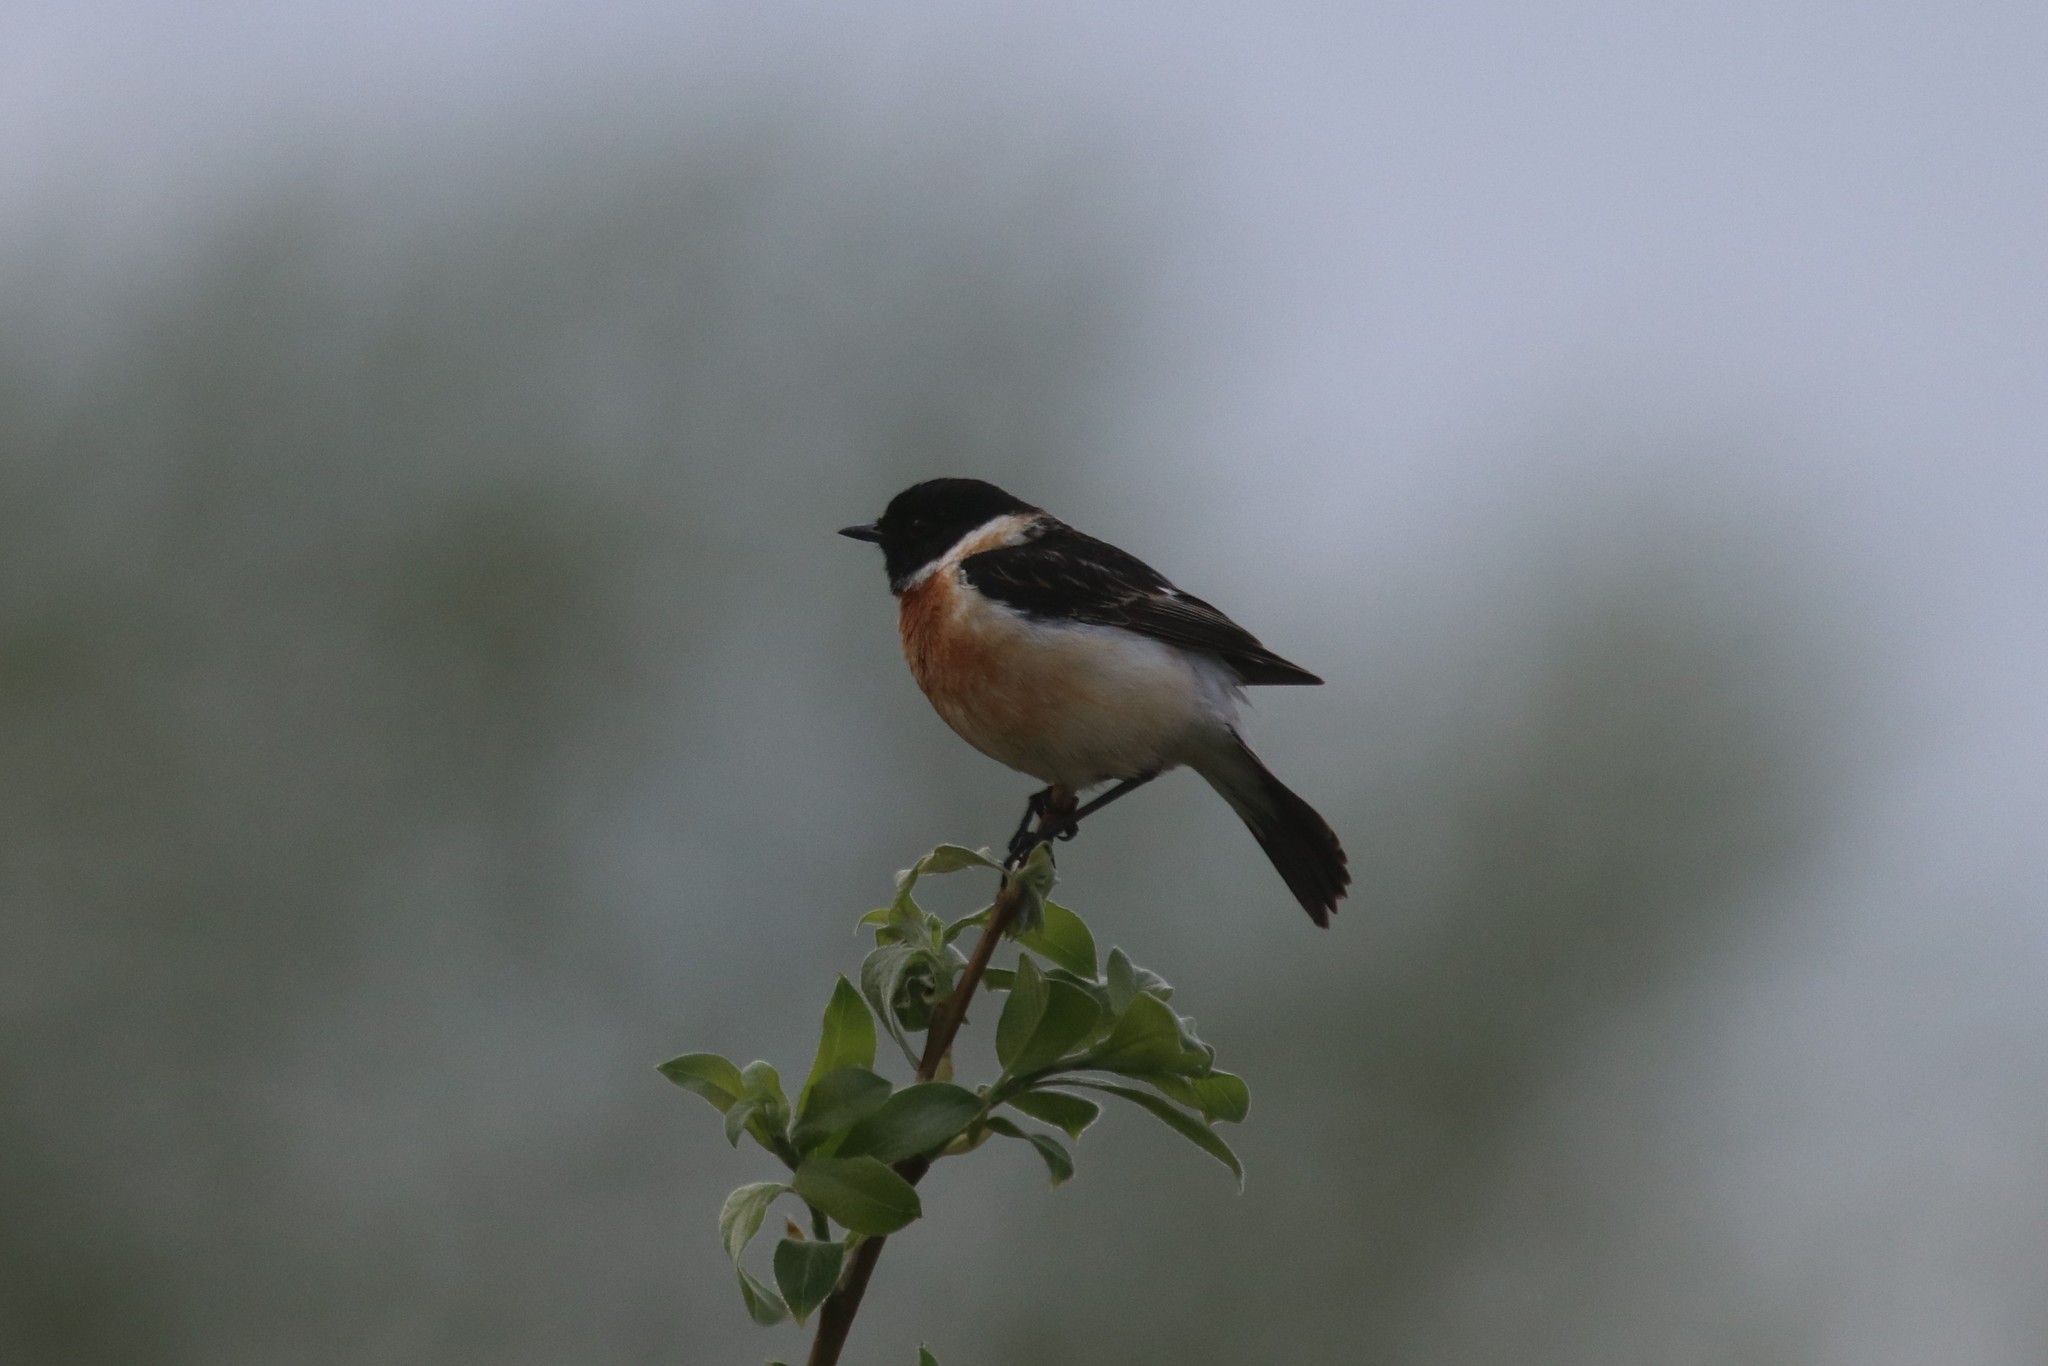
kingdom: Animalia
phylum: Chordata
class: Aves
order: Passeriformes
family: Muscicapidae
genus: Saxicola
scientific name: Saxicola maurus
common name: Siberian stonechat
